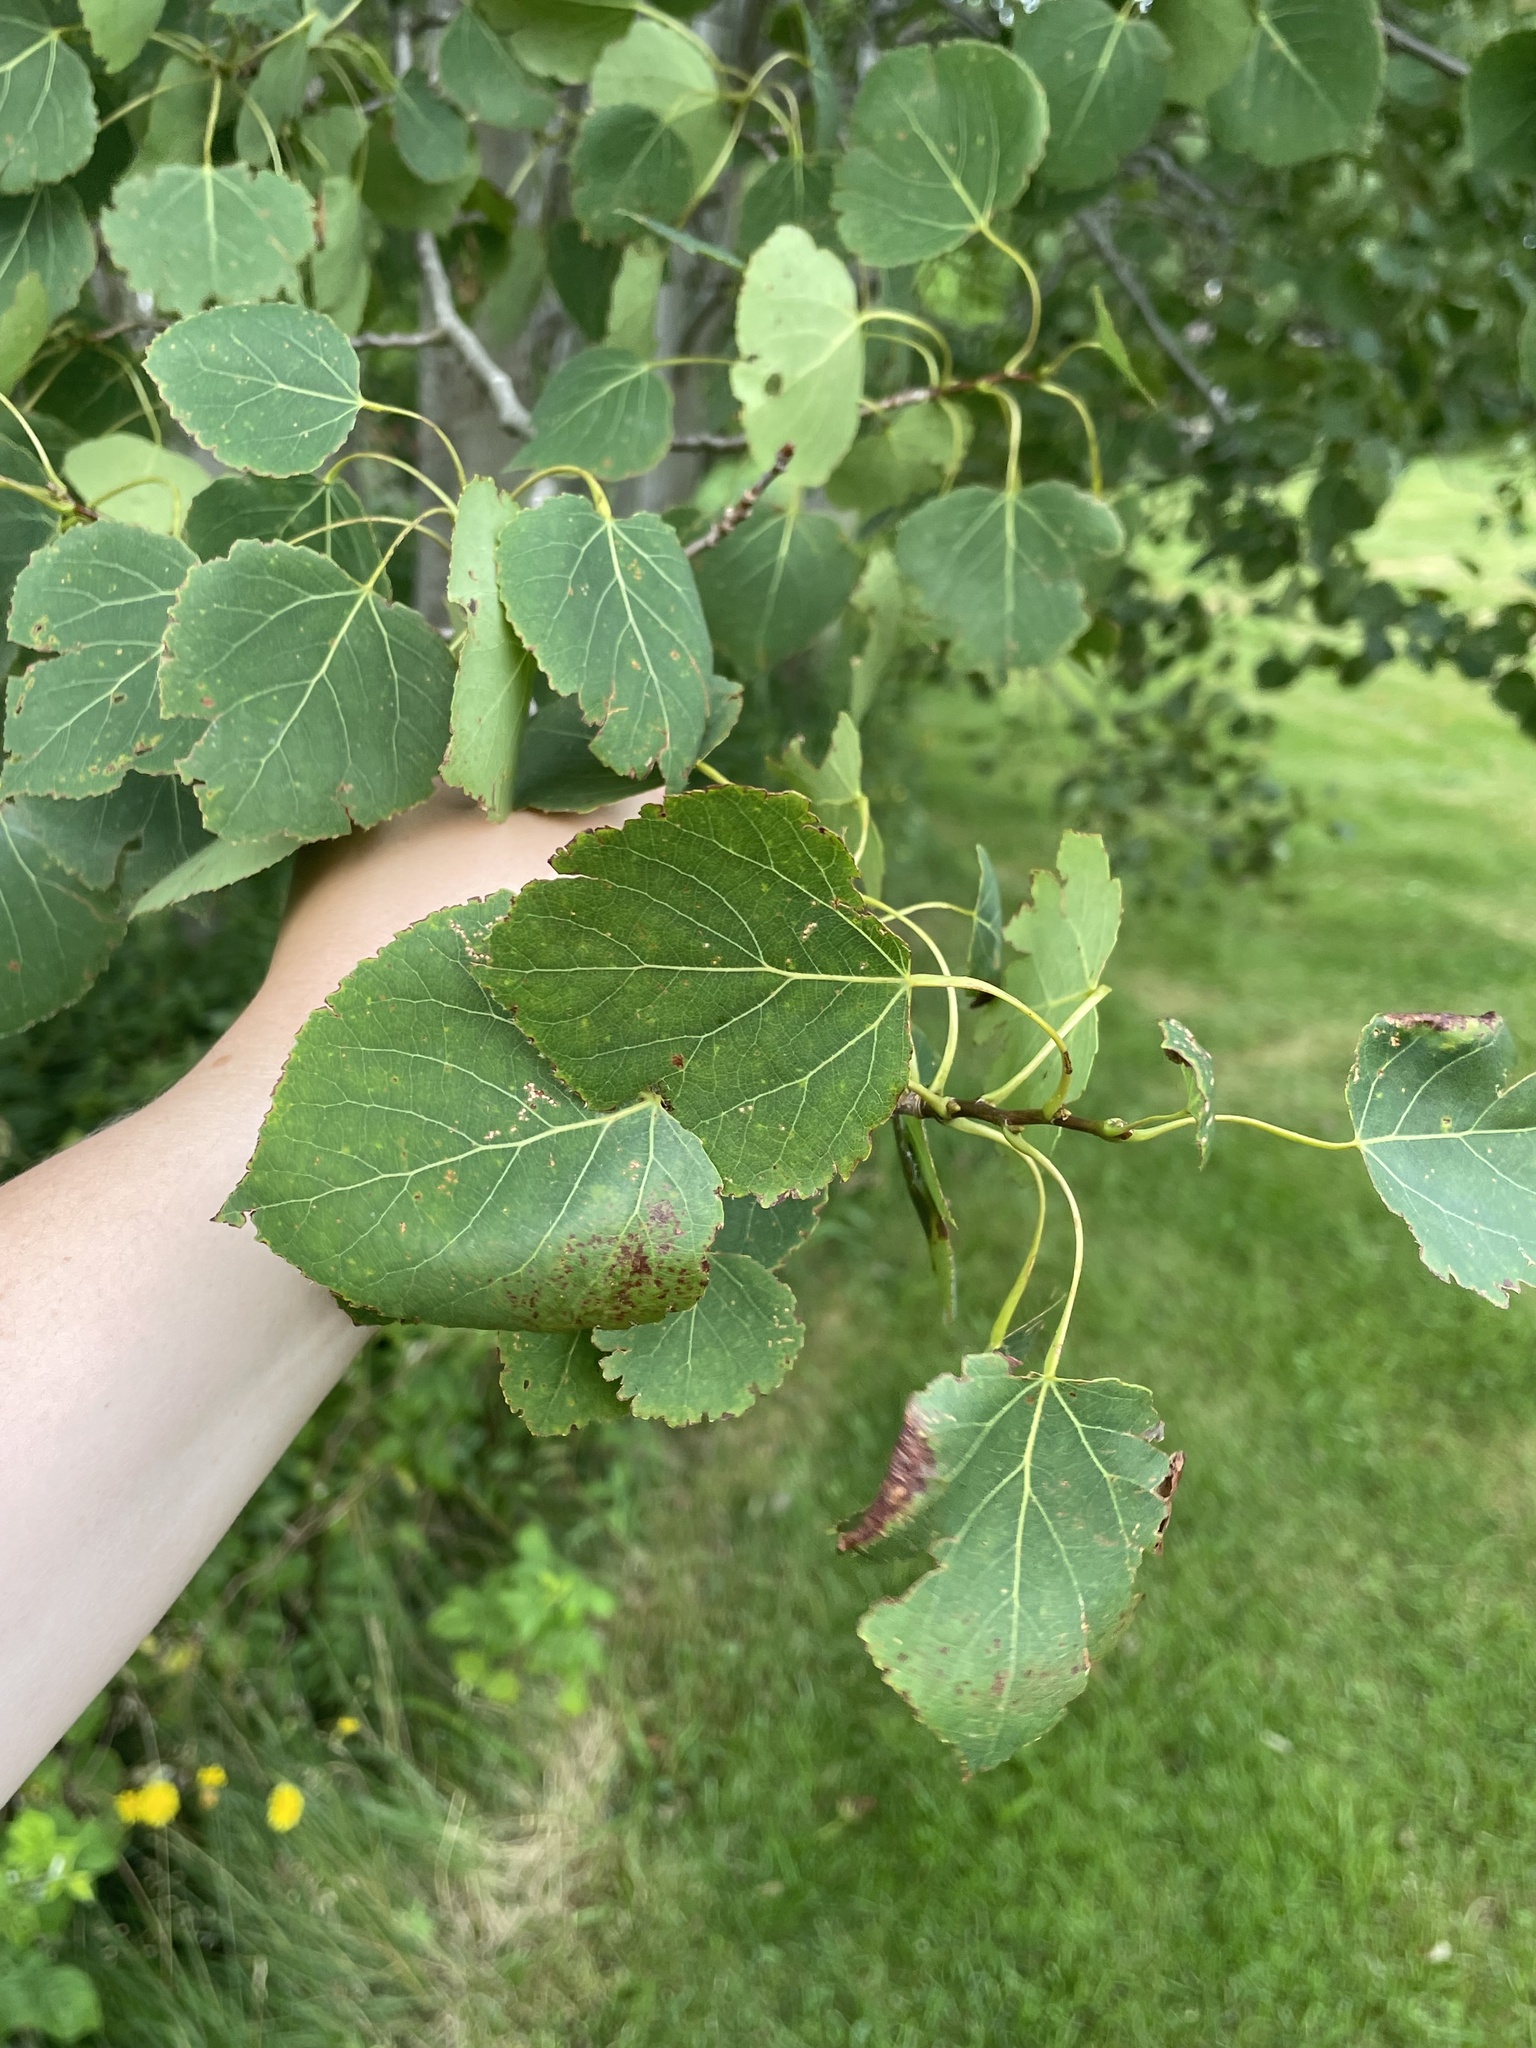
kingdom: Plantae
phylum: Tracheophyta
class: Magnoliopsida
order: Malpighiales
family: Salicaceae
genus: Populus
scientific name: Populus tremuloides
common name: Quaking aspen
